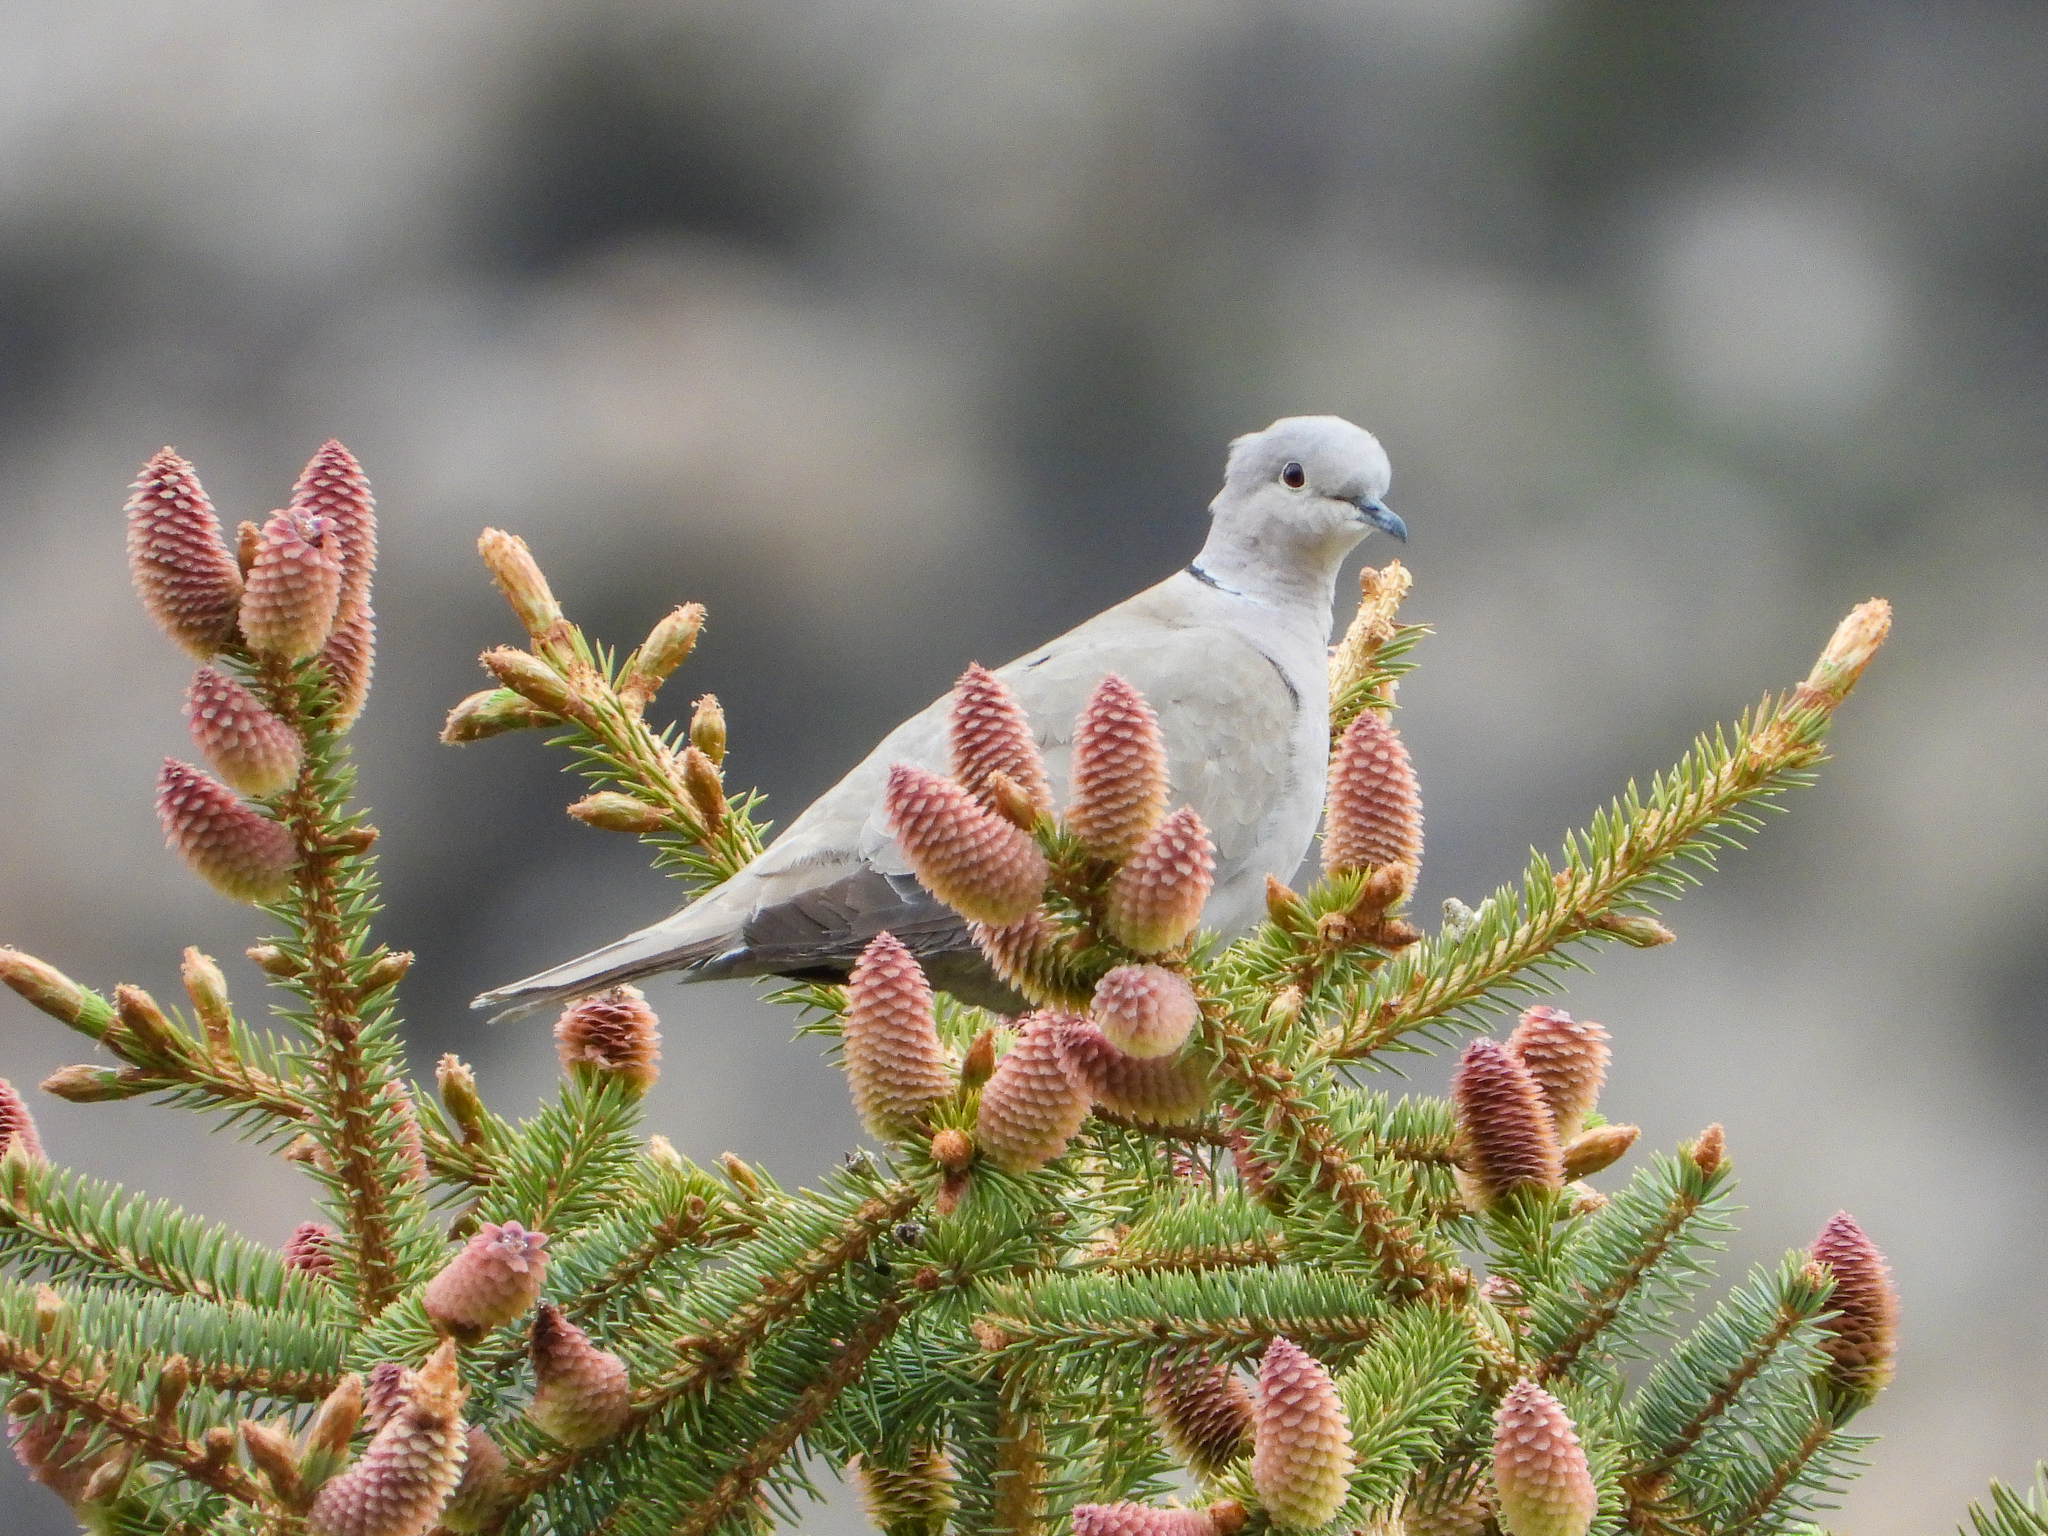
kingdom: Animalia
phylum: Chordata
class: Aves
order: Columbiformes
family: Columbidae
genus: Streptopelia
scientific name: Streptopelia decaocto
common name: Eurasian collared dove
